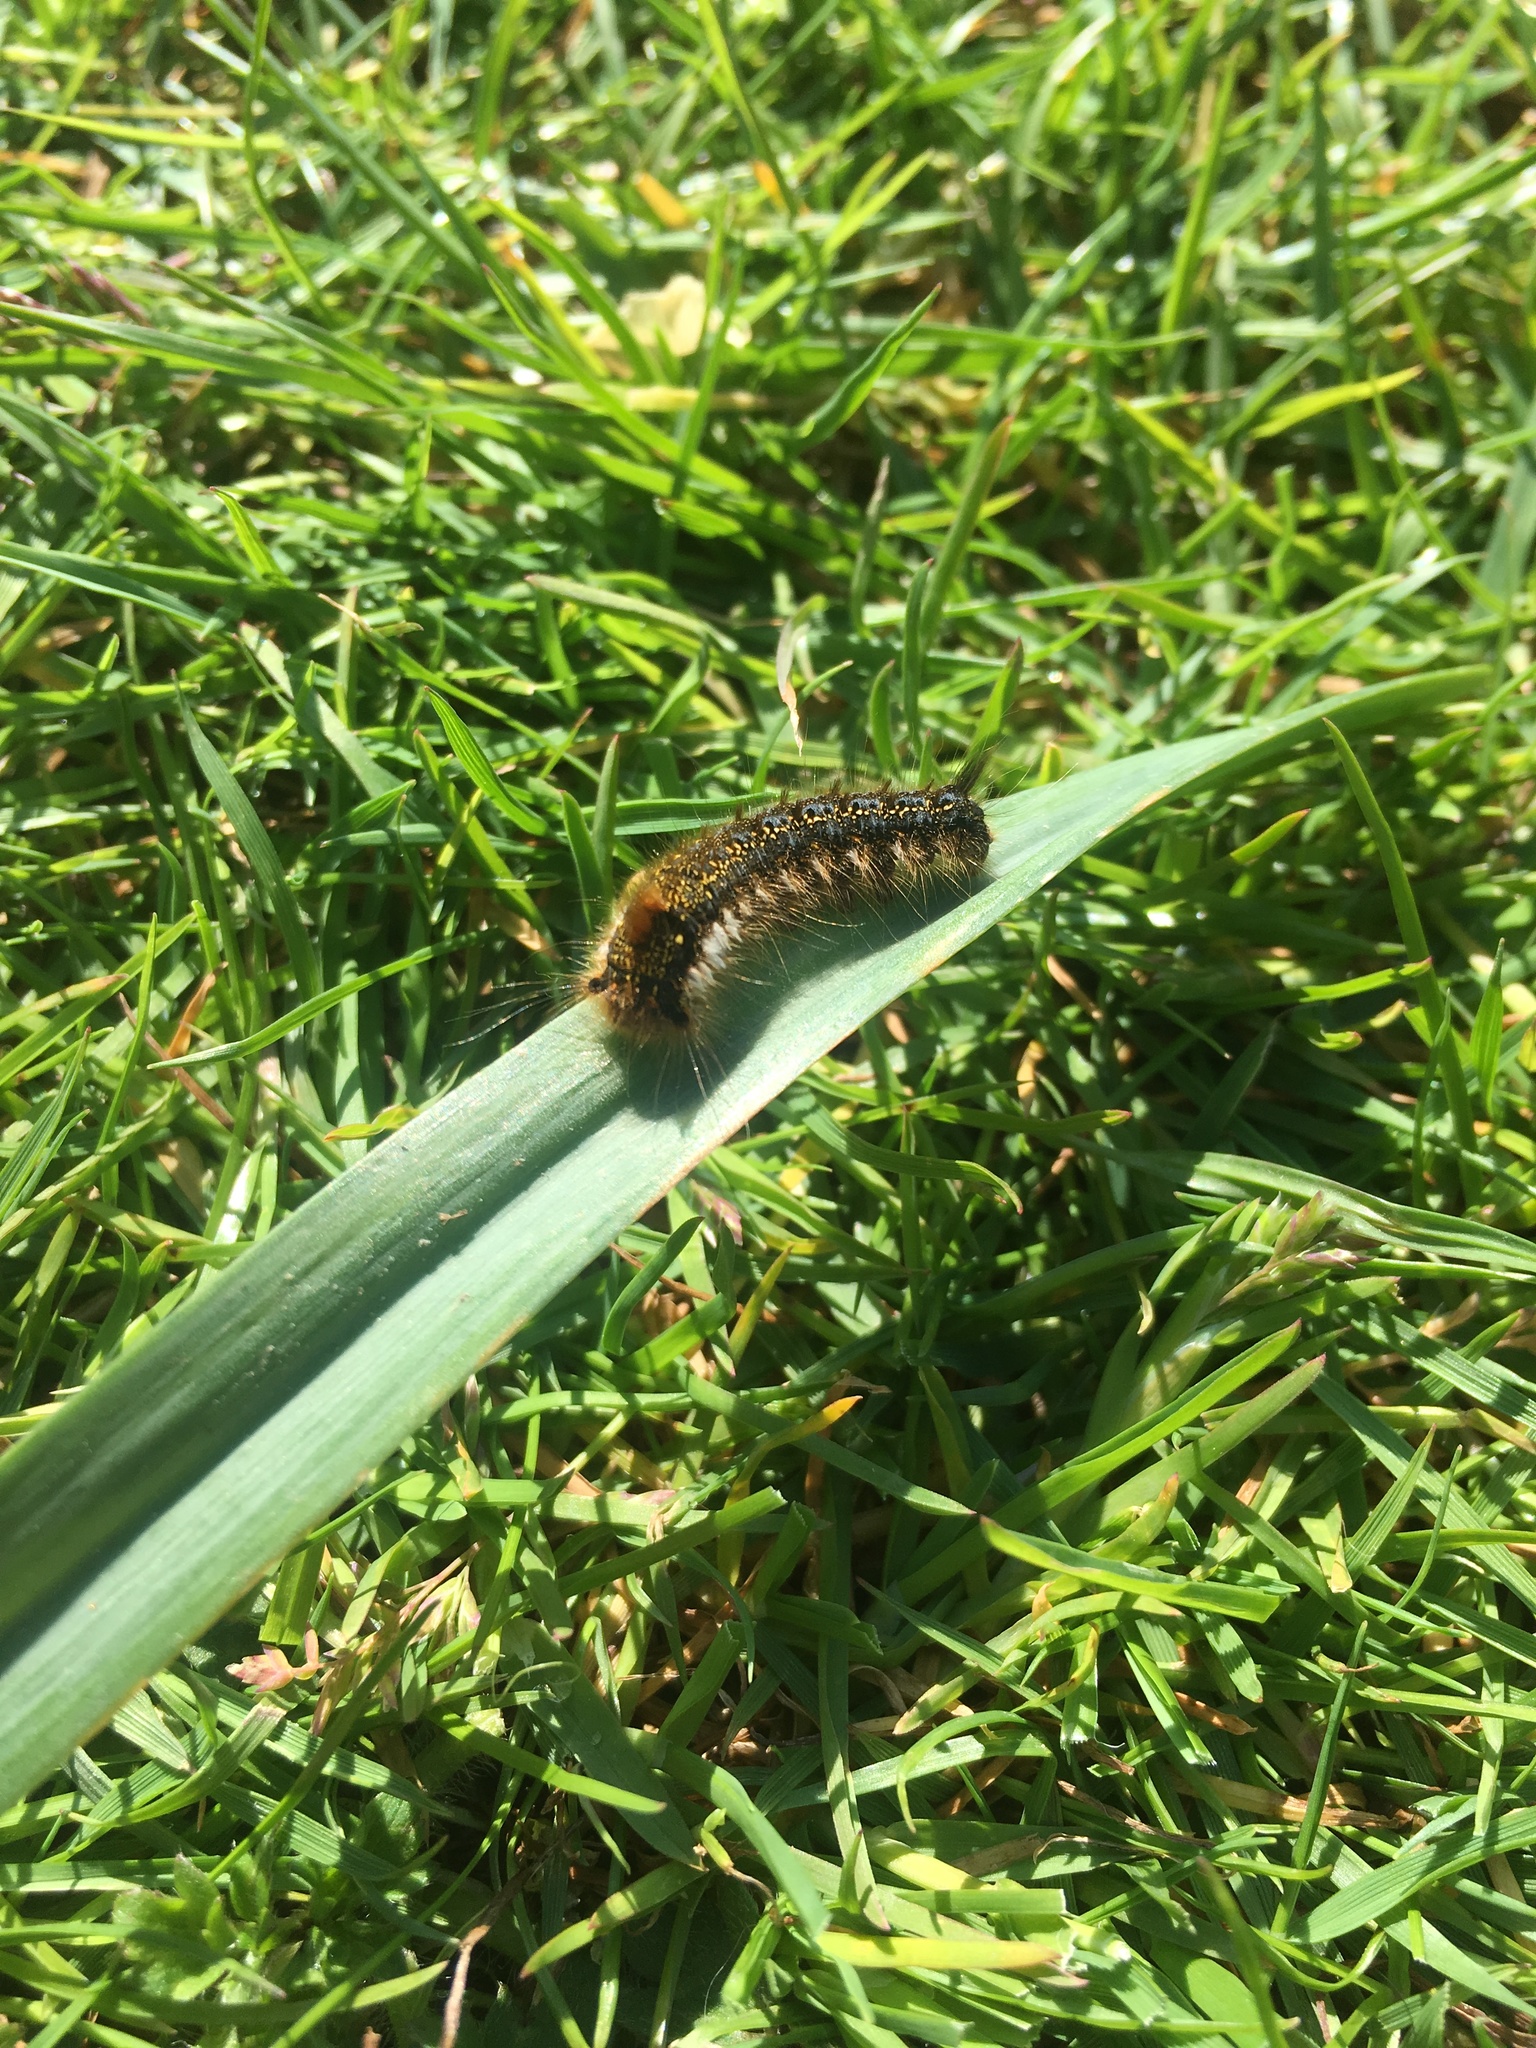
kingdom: Animalia
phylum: Arthropoda
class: Insecta
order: Lepidoptera
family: Lasiocampidae
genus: Euthrix
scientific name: Euthrix potatoria
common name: Drinker
